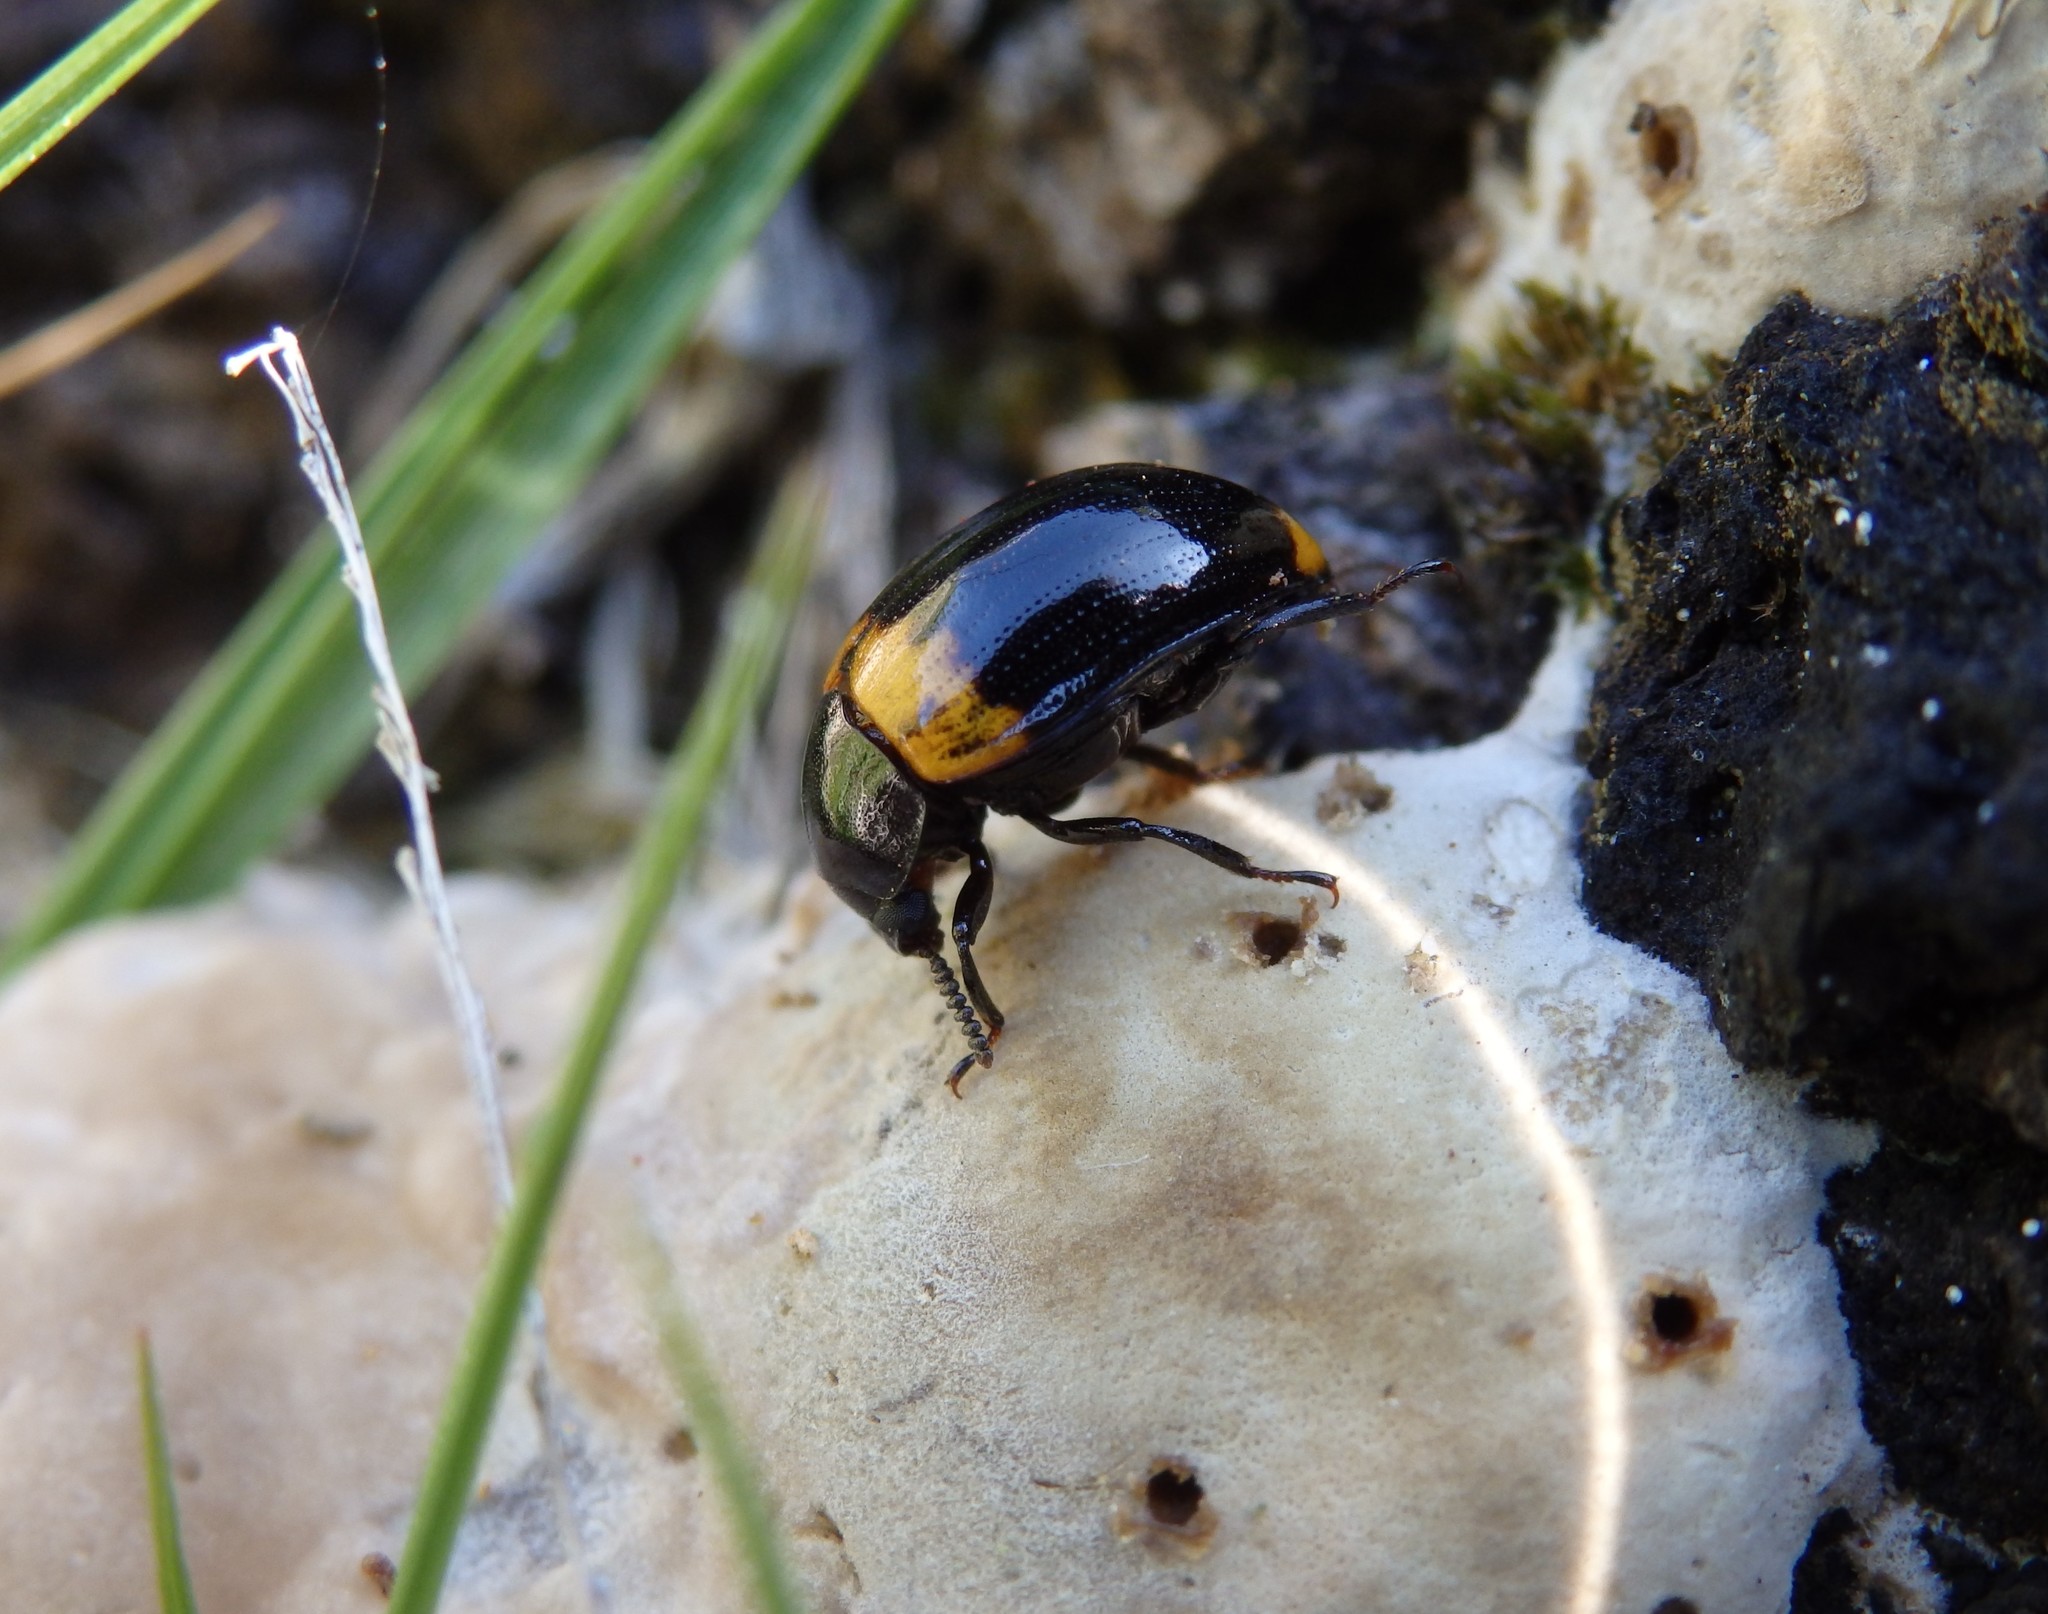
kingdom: Animalia
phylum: Arthropoda
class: Insecta
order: Coleoptera
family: Tenebrionidae
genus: Diaperis
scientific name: Diaperis boleti
